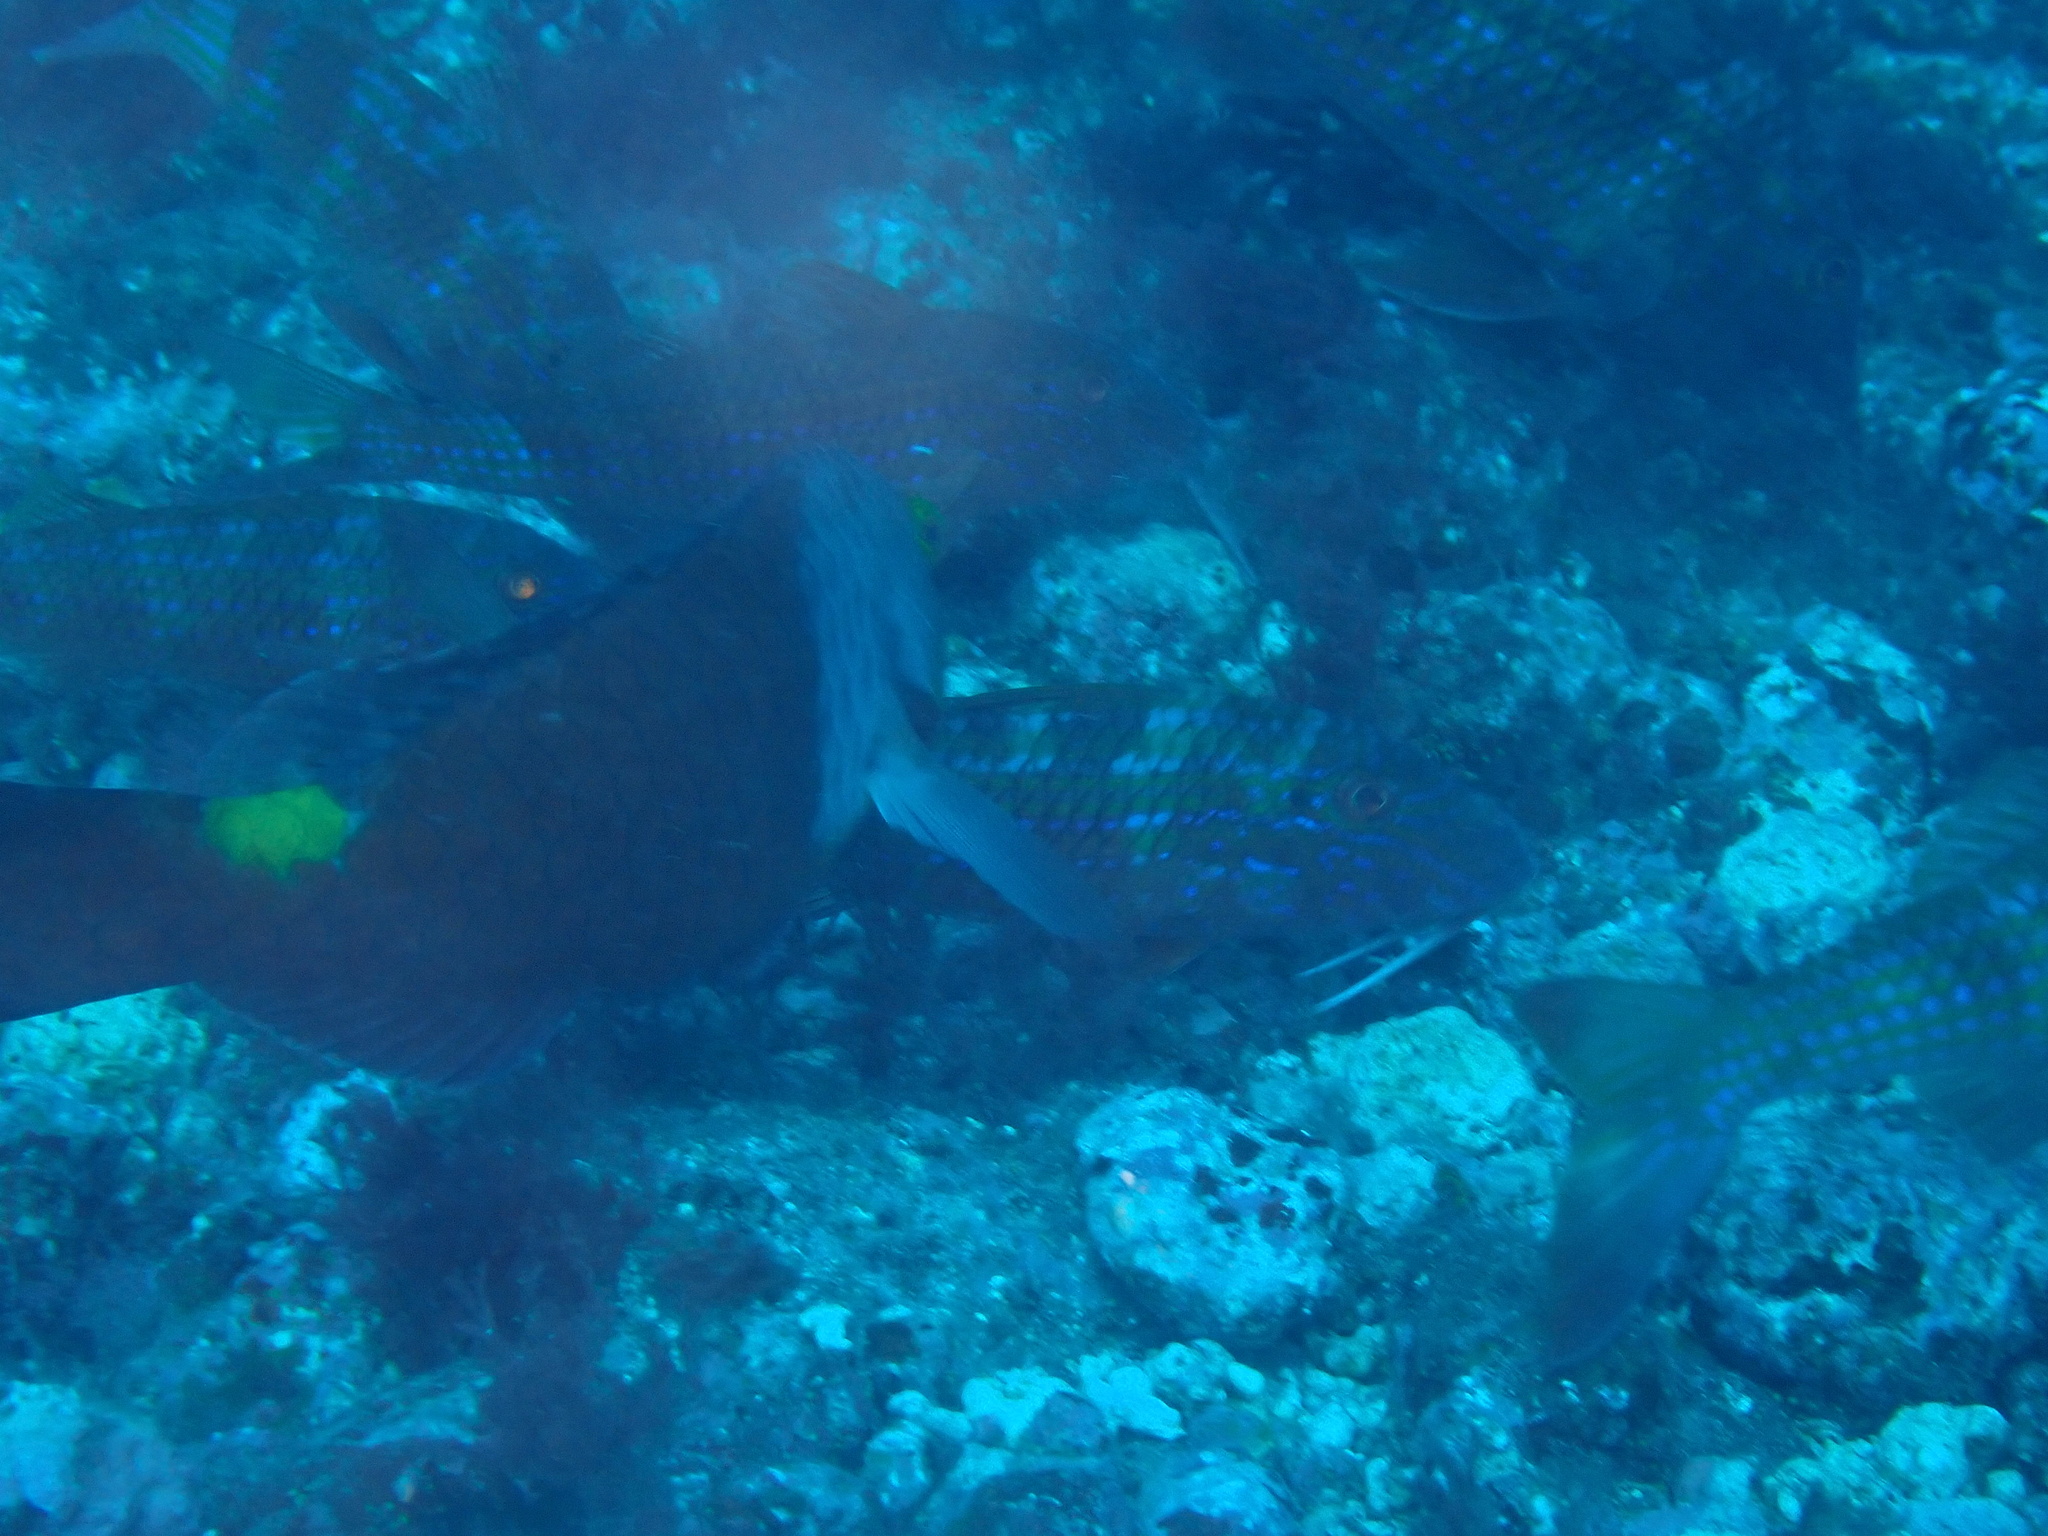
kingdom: Animalia
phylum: Chordata
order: Perciformes
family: Scaridae
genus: Sparisoma
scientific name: Sparisoma cretense
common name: Parrotfish
